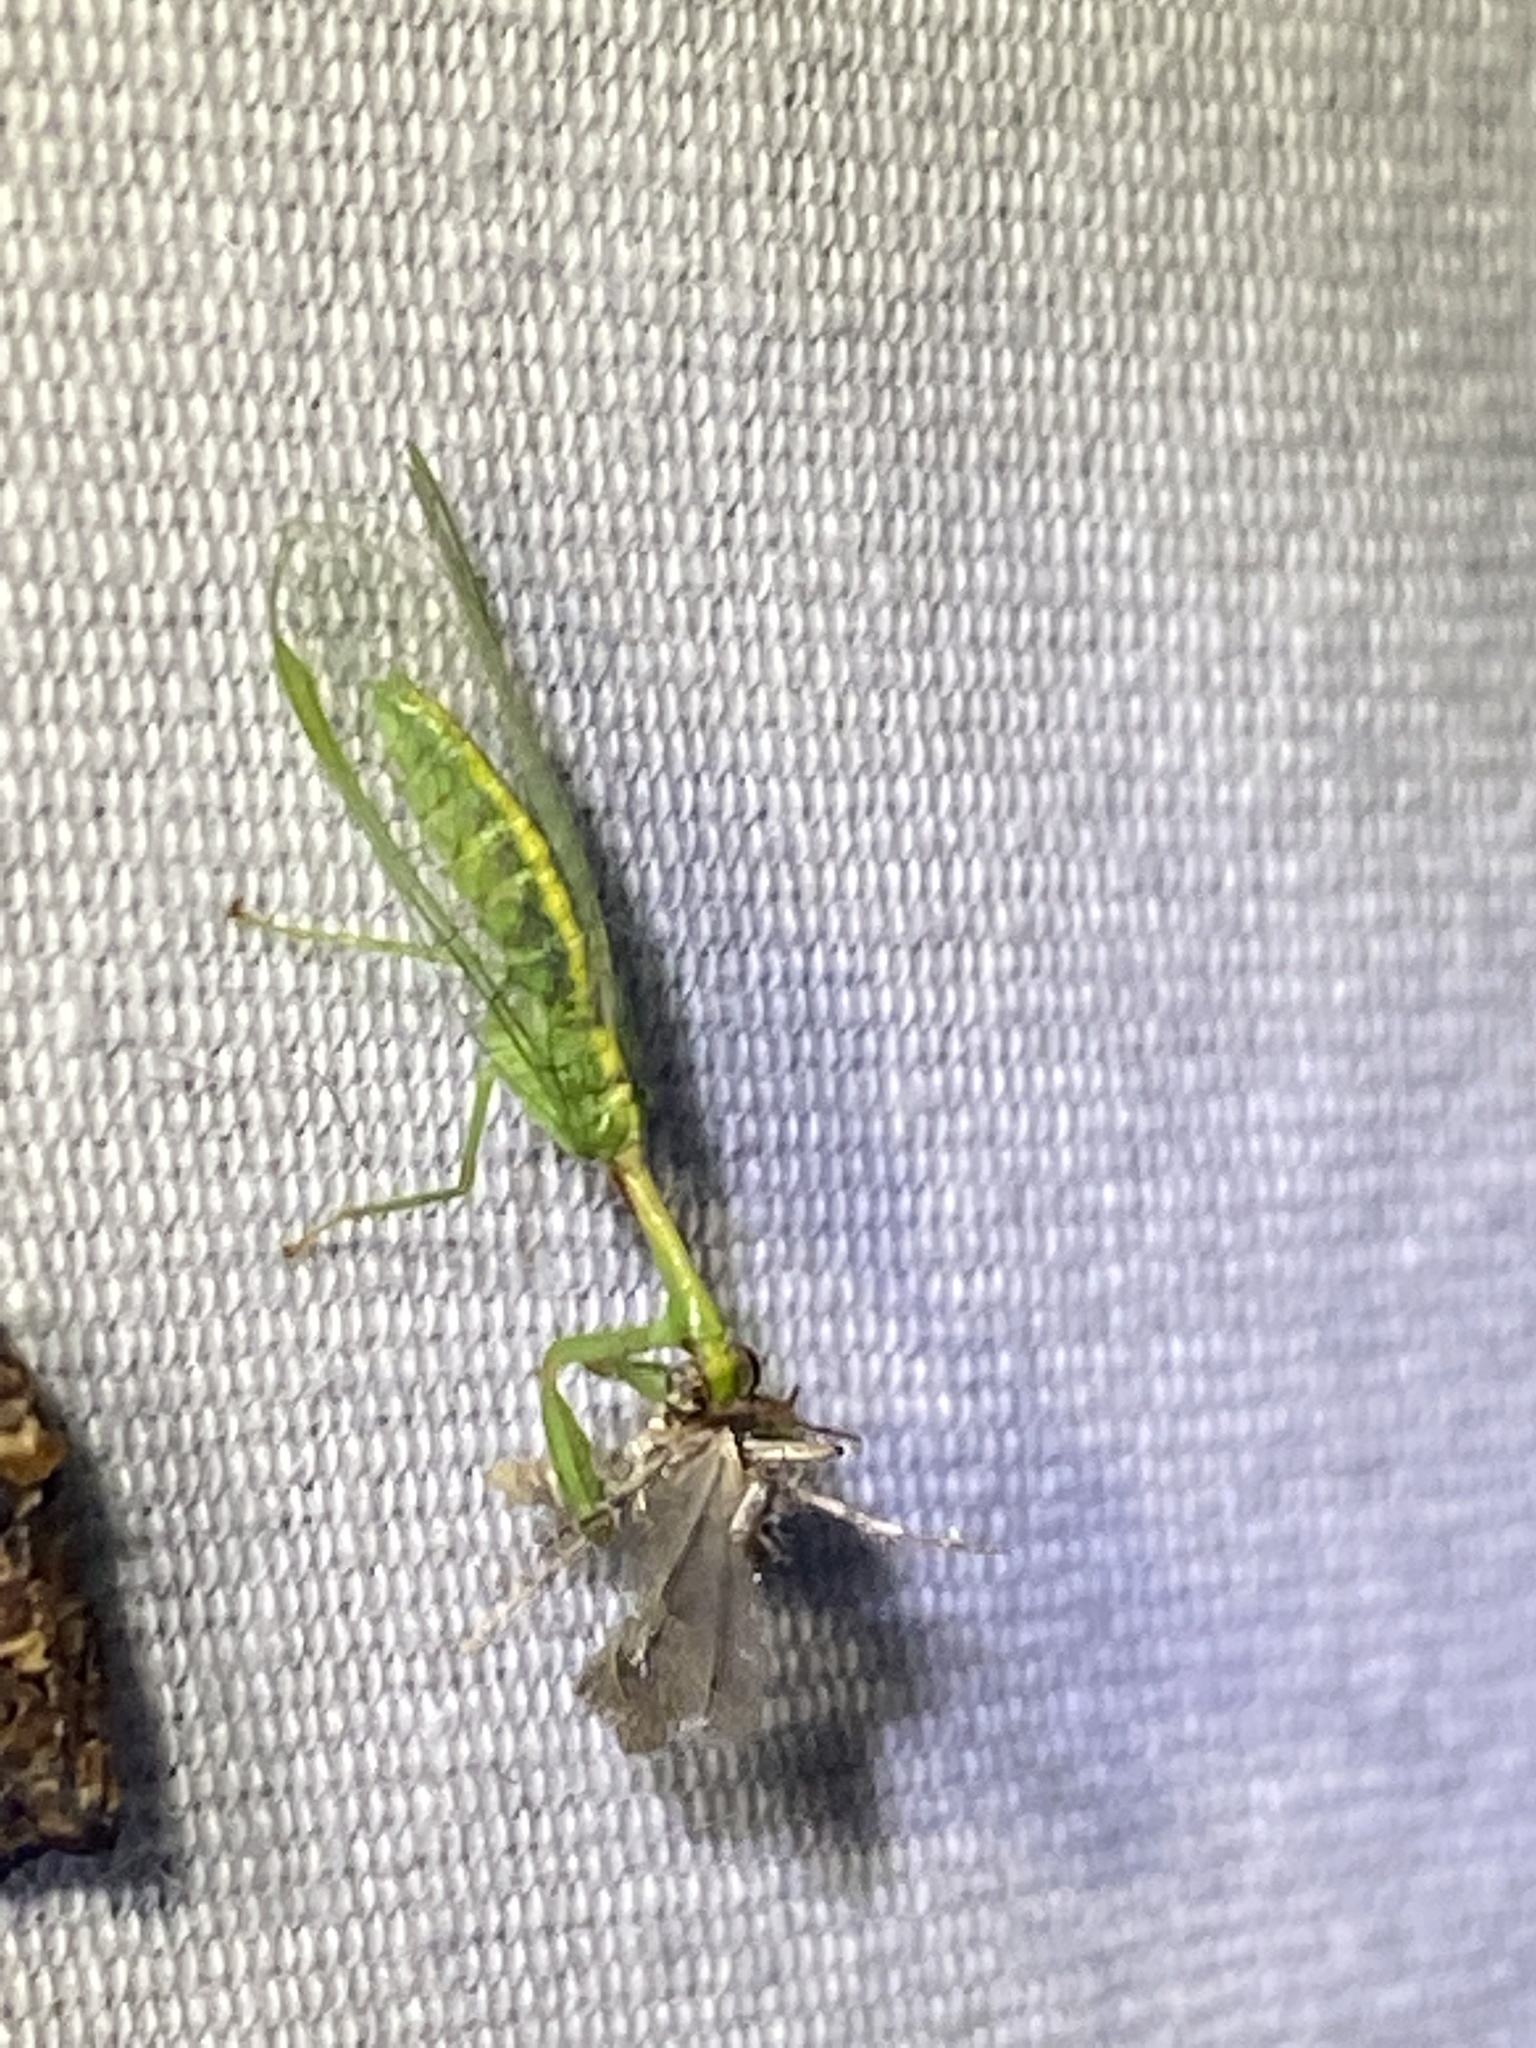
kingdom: Animalia
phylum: Arthropoda
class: Insecta
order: Neuroptera
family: Mantispidae
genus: Zeugomantispa
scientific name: Zeugomantispa minuta
